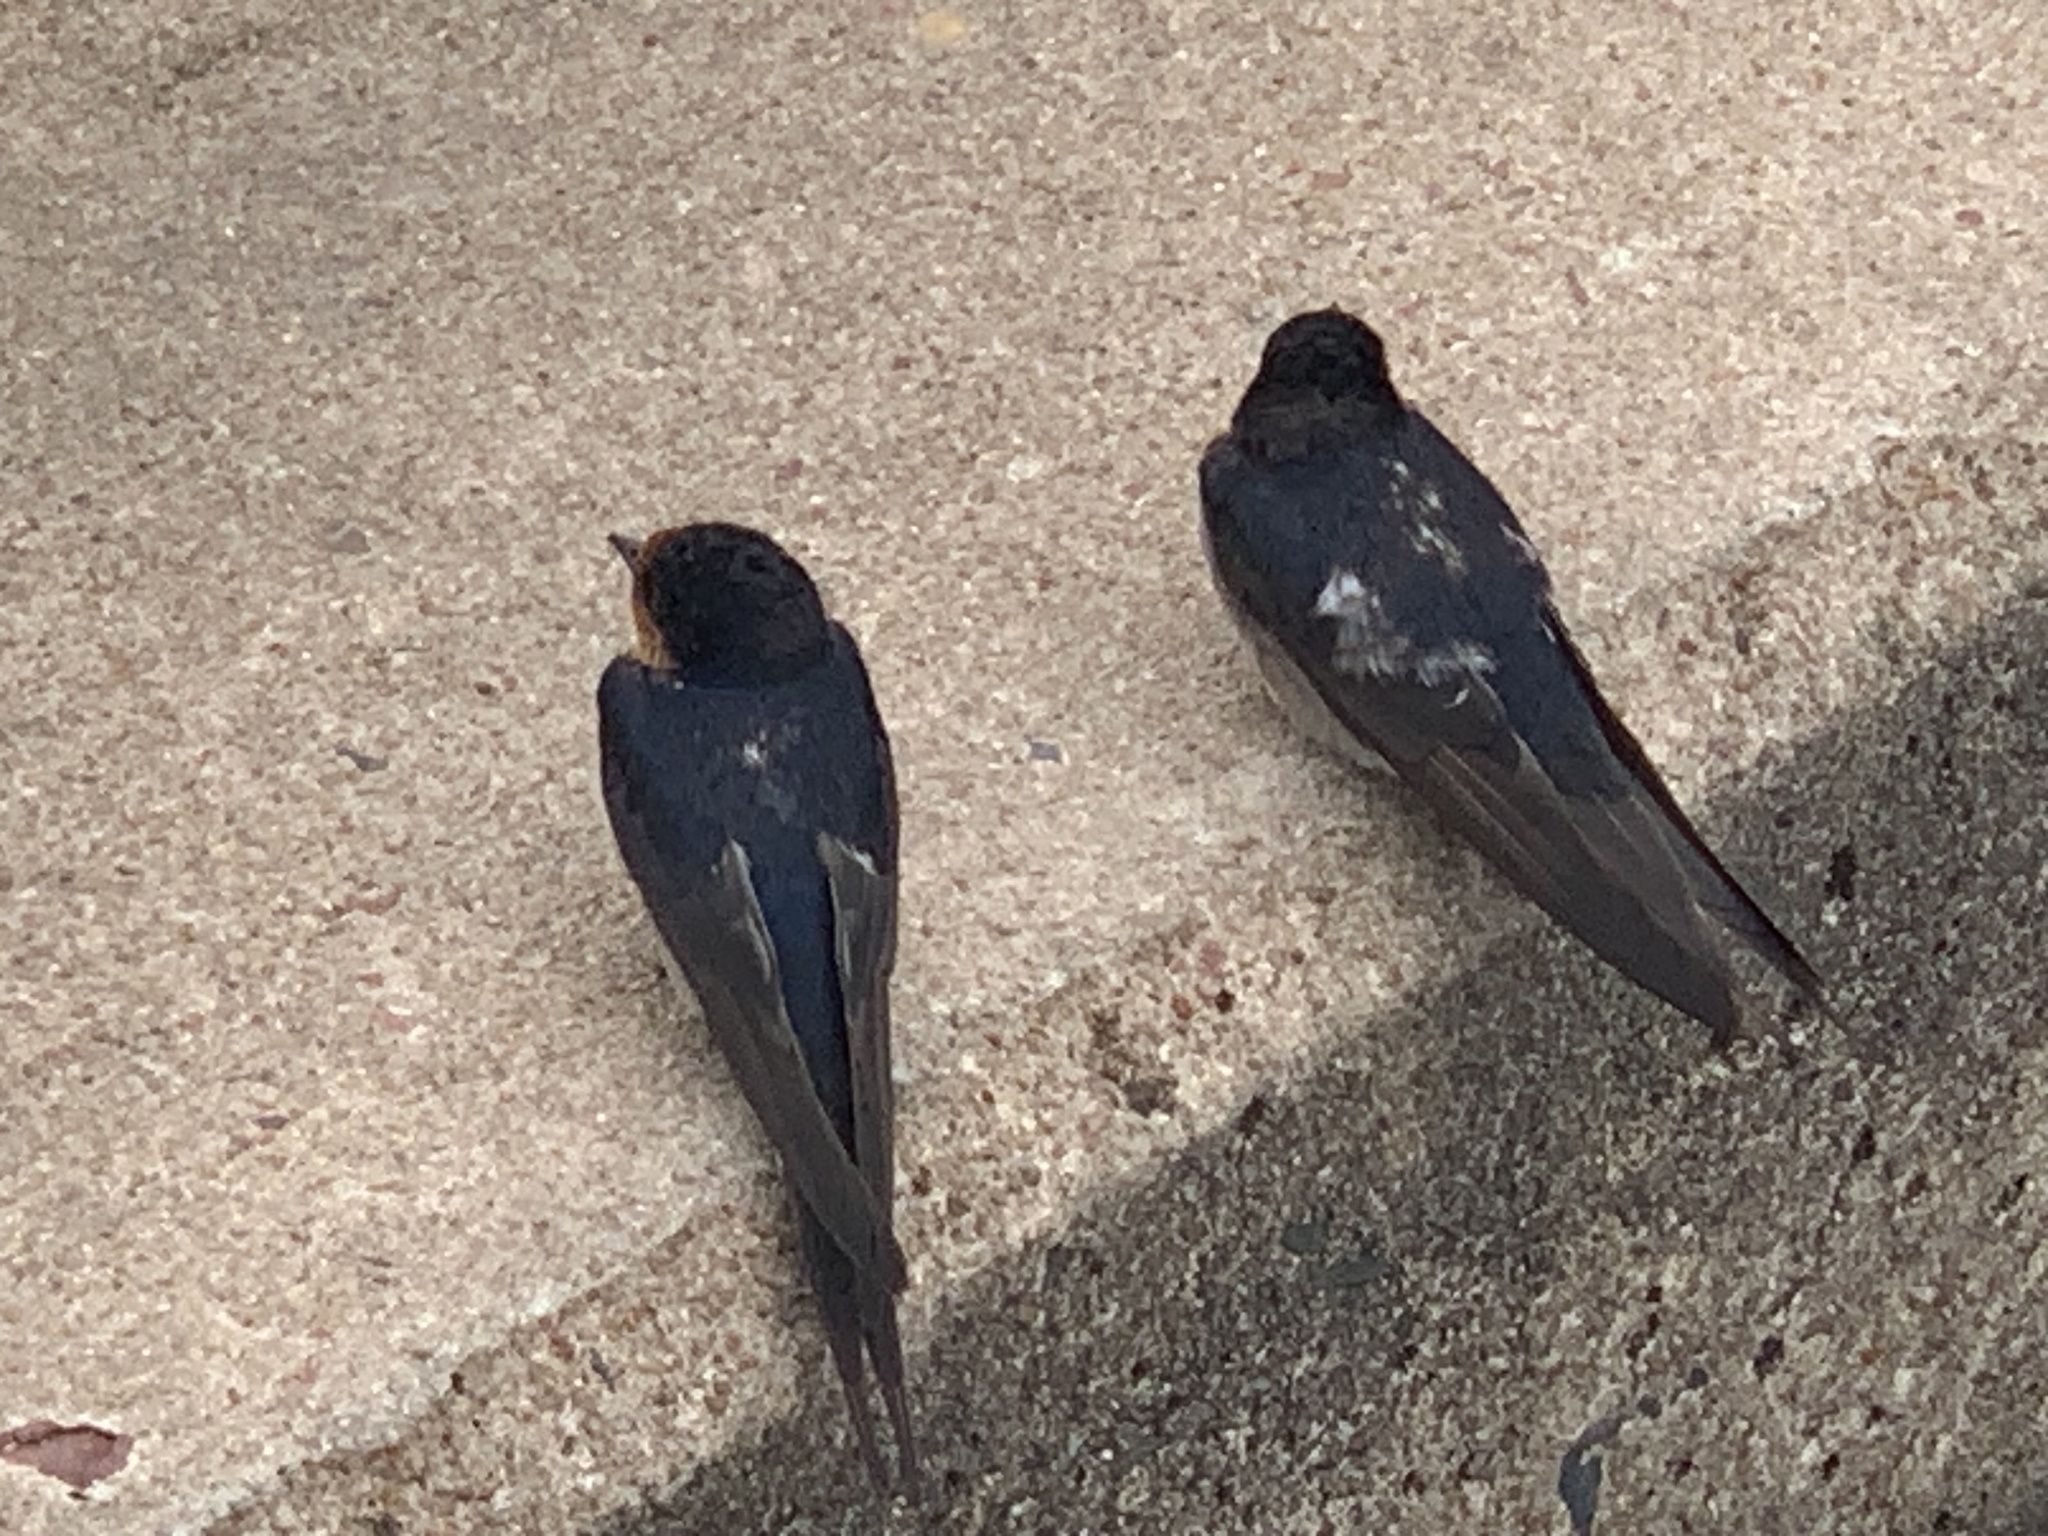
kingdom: Animalia
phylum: Chordata
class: Aves
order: Passeriformes
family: Hirundinidae
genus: Hirundo
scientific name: Hirundo neoxena
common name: Welcome swallow
